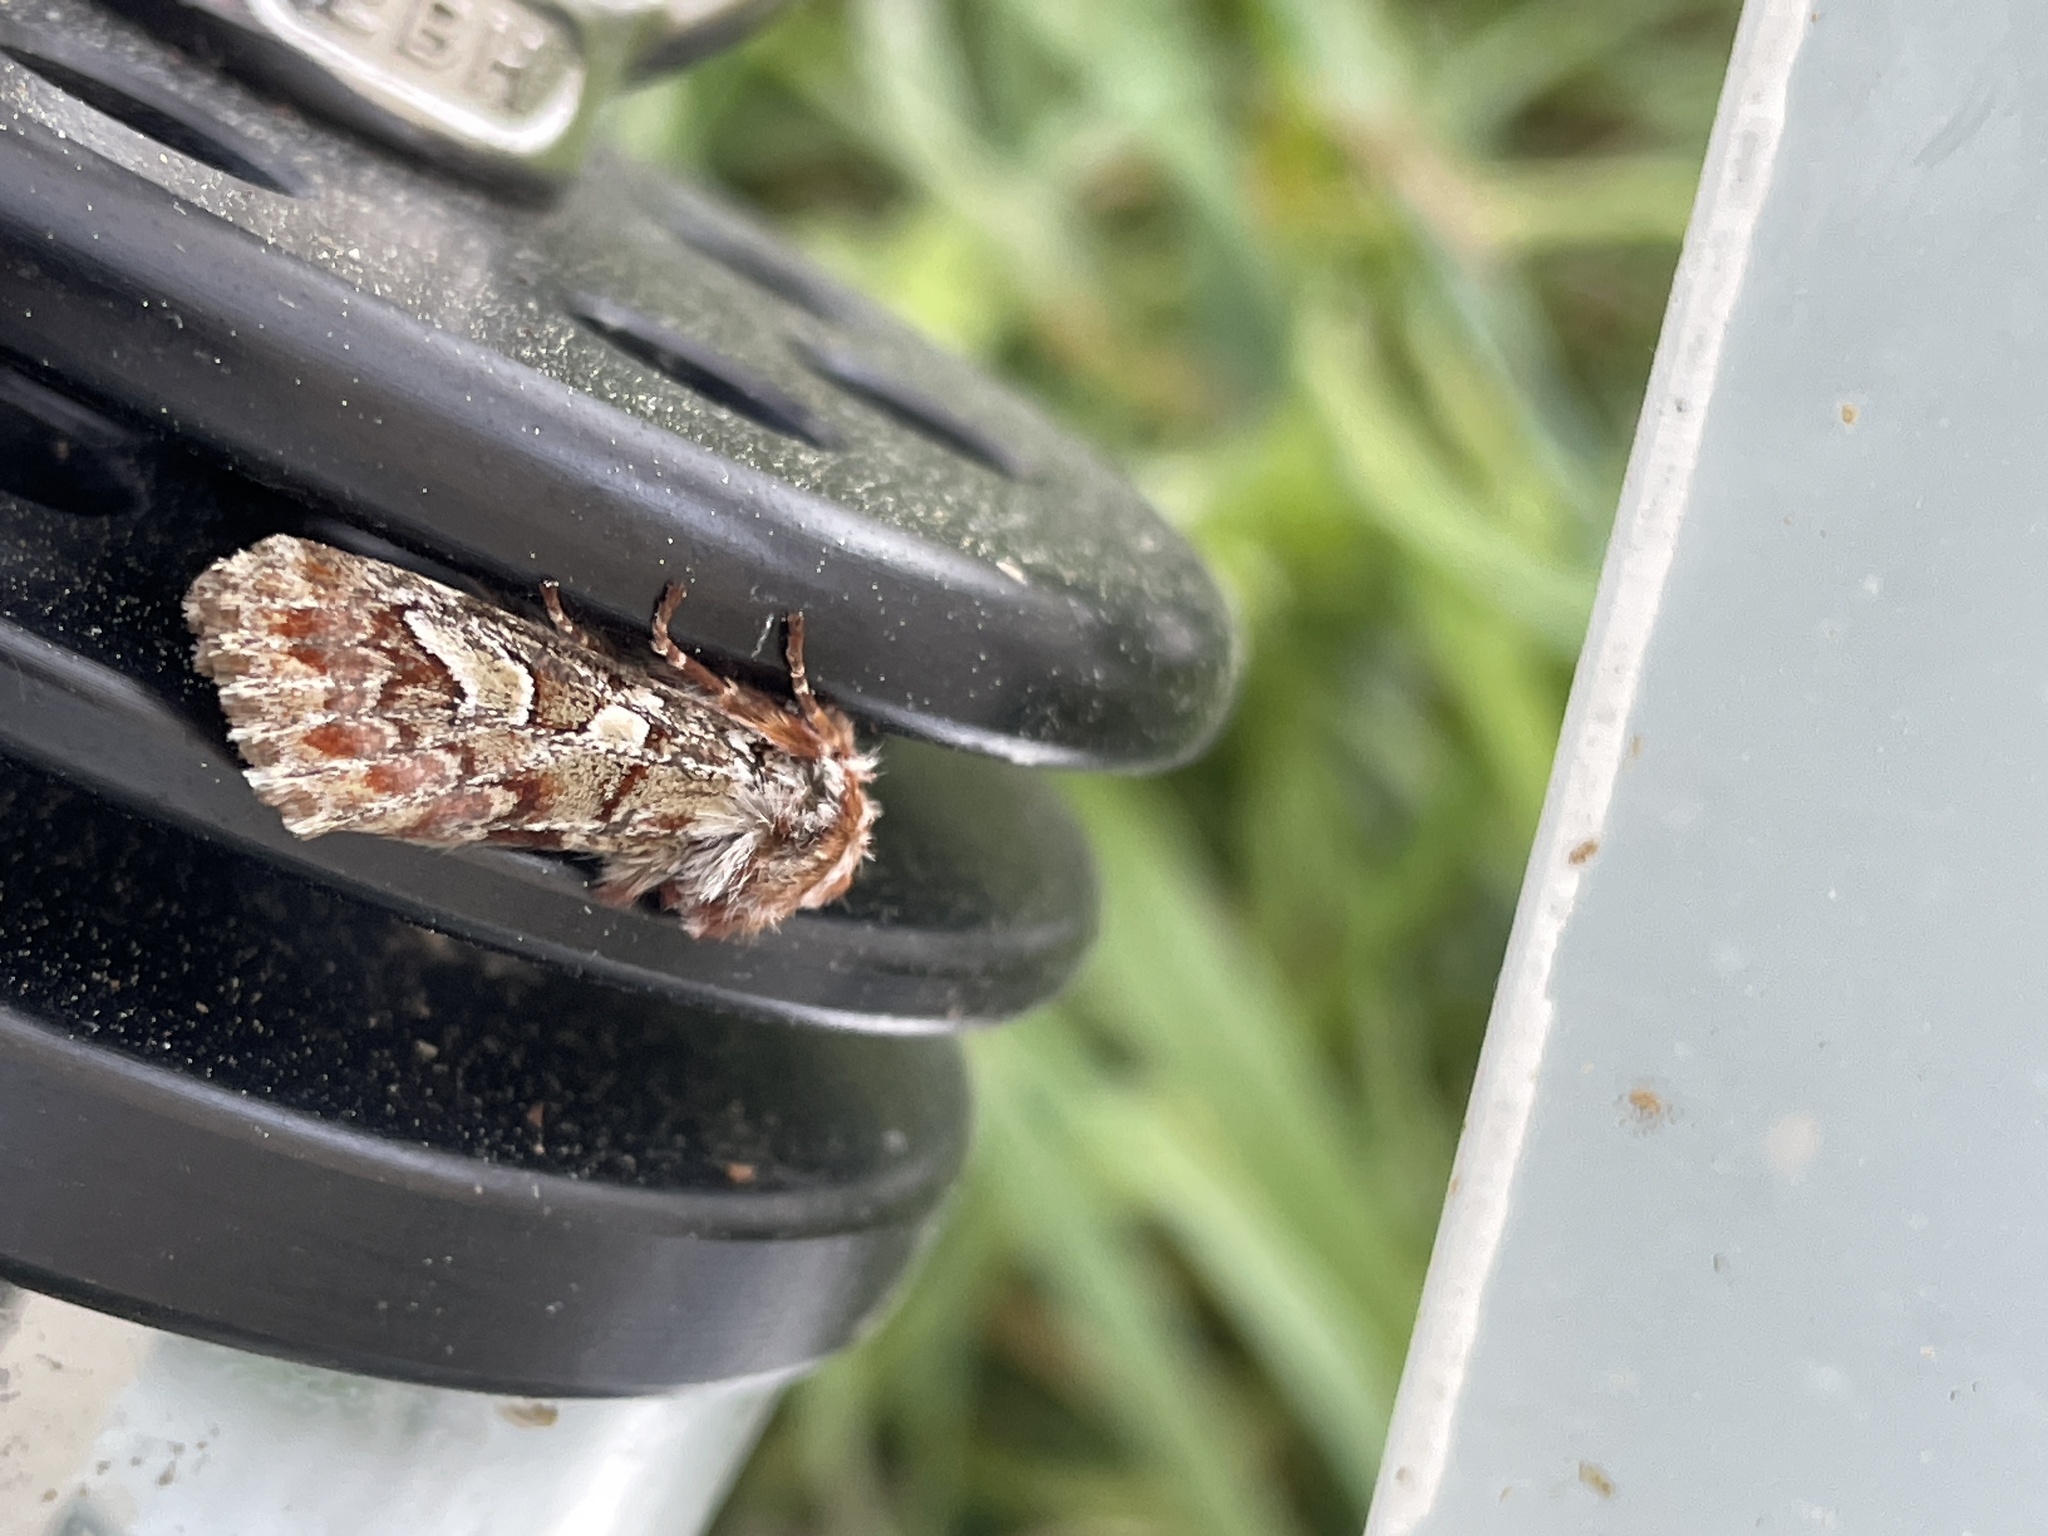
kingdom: Animalia
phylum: Arthropoda
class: Insecta
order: Lepidoptera
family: Noctuidae
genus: Panolis
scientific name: Panolis flammea
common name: Pine beauty
